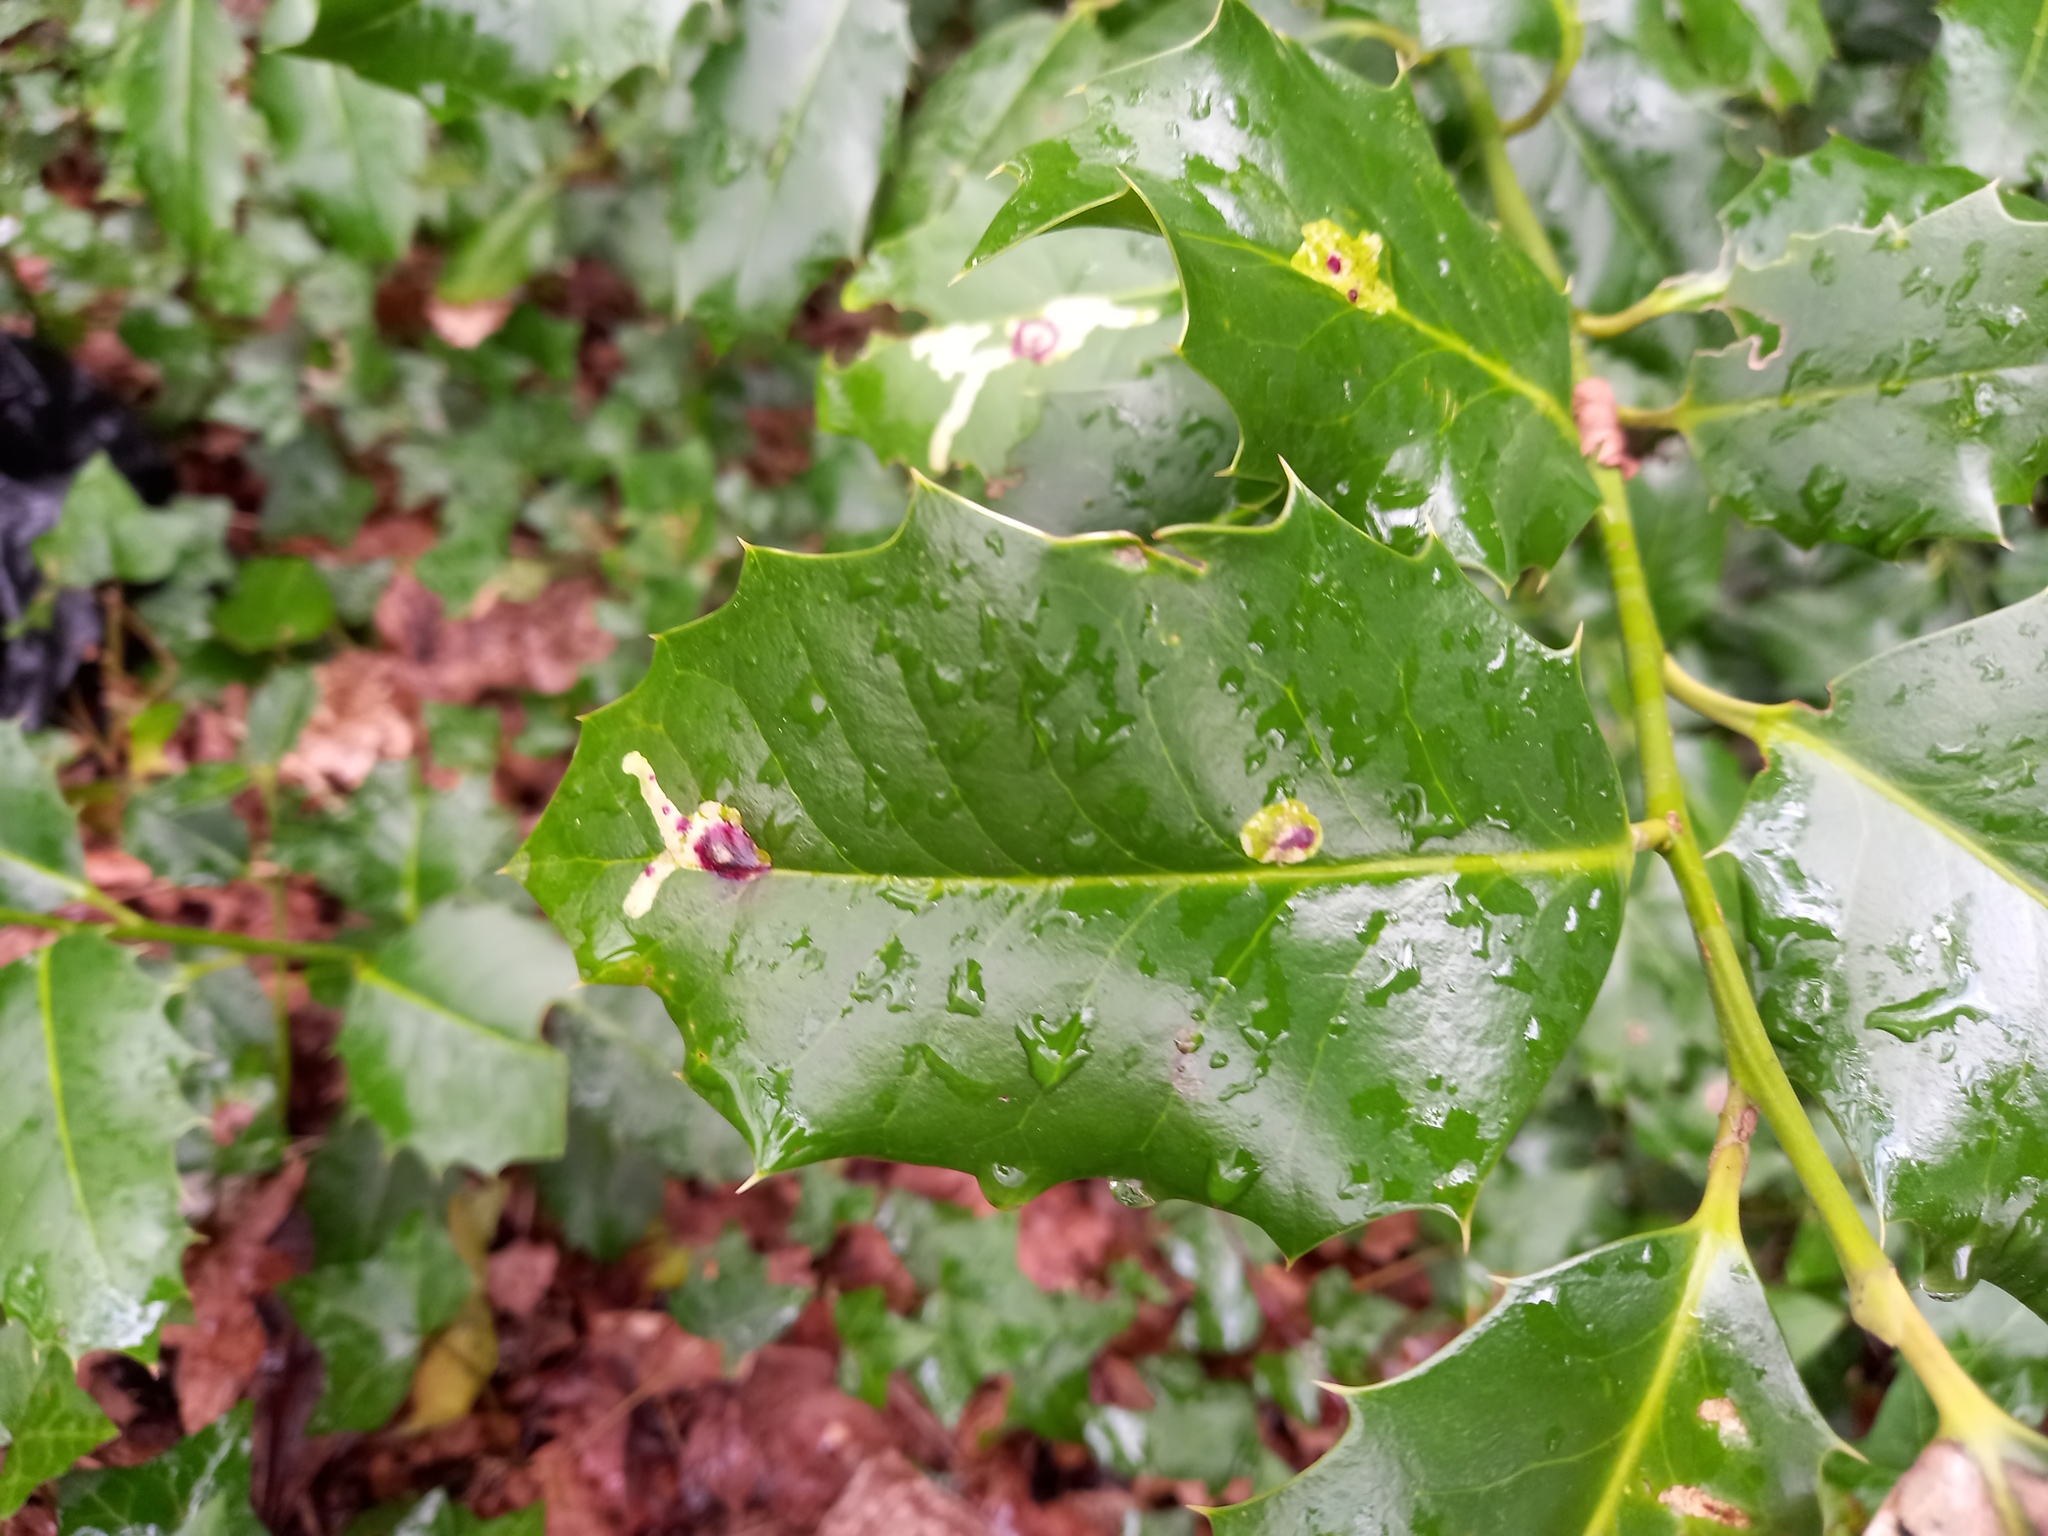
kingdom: Animalia
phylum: Arthropoda
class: Insecta
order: Diptera
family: Agromyzidae
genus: Phytomyza
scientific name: Phytomyza ilicis
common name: Holly leafminer
